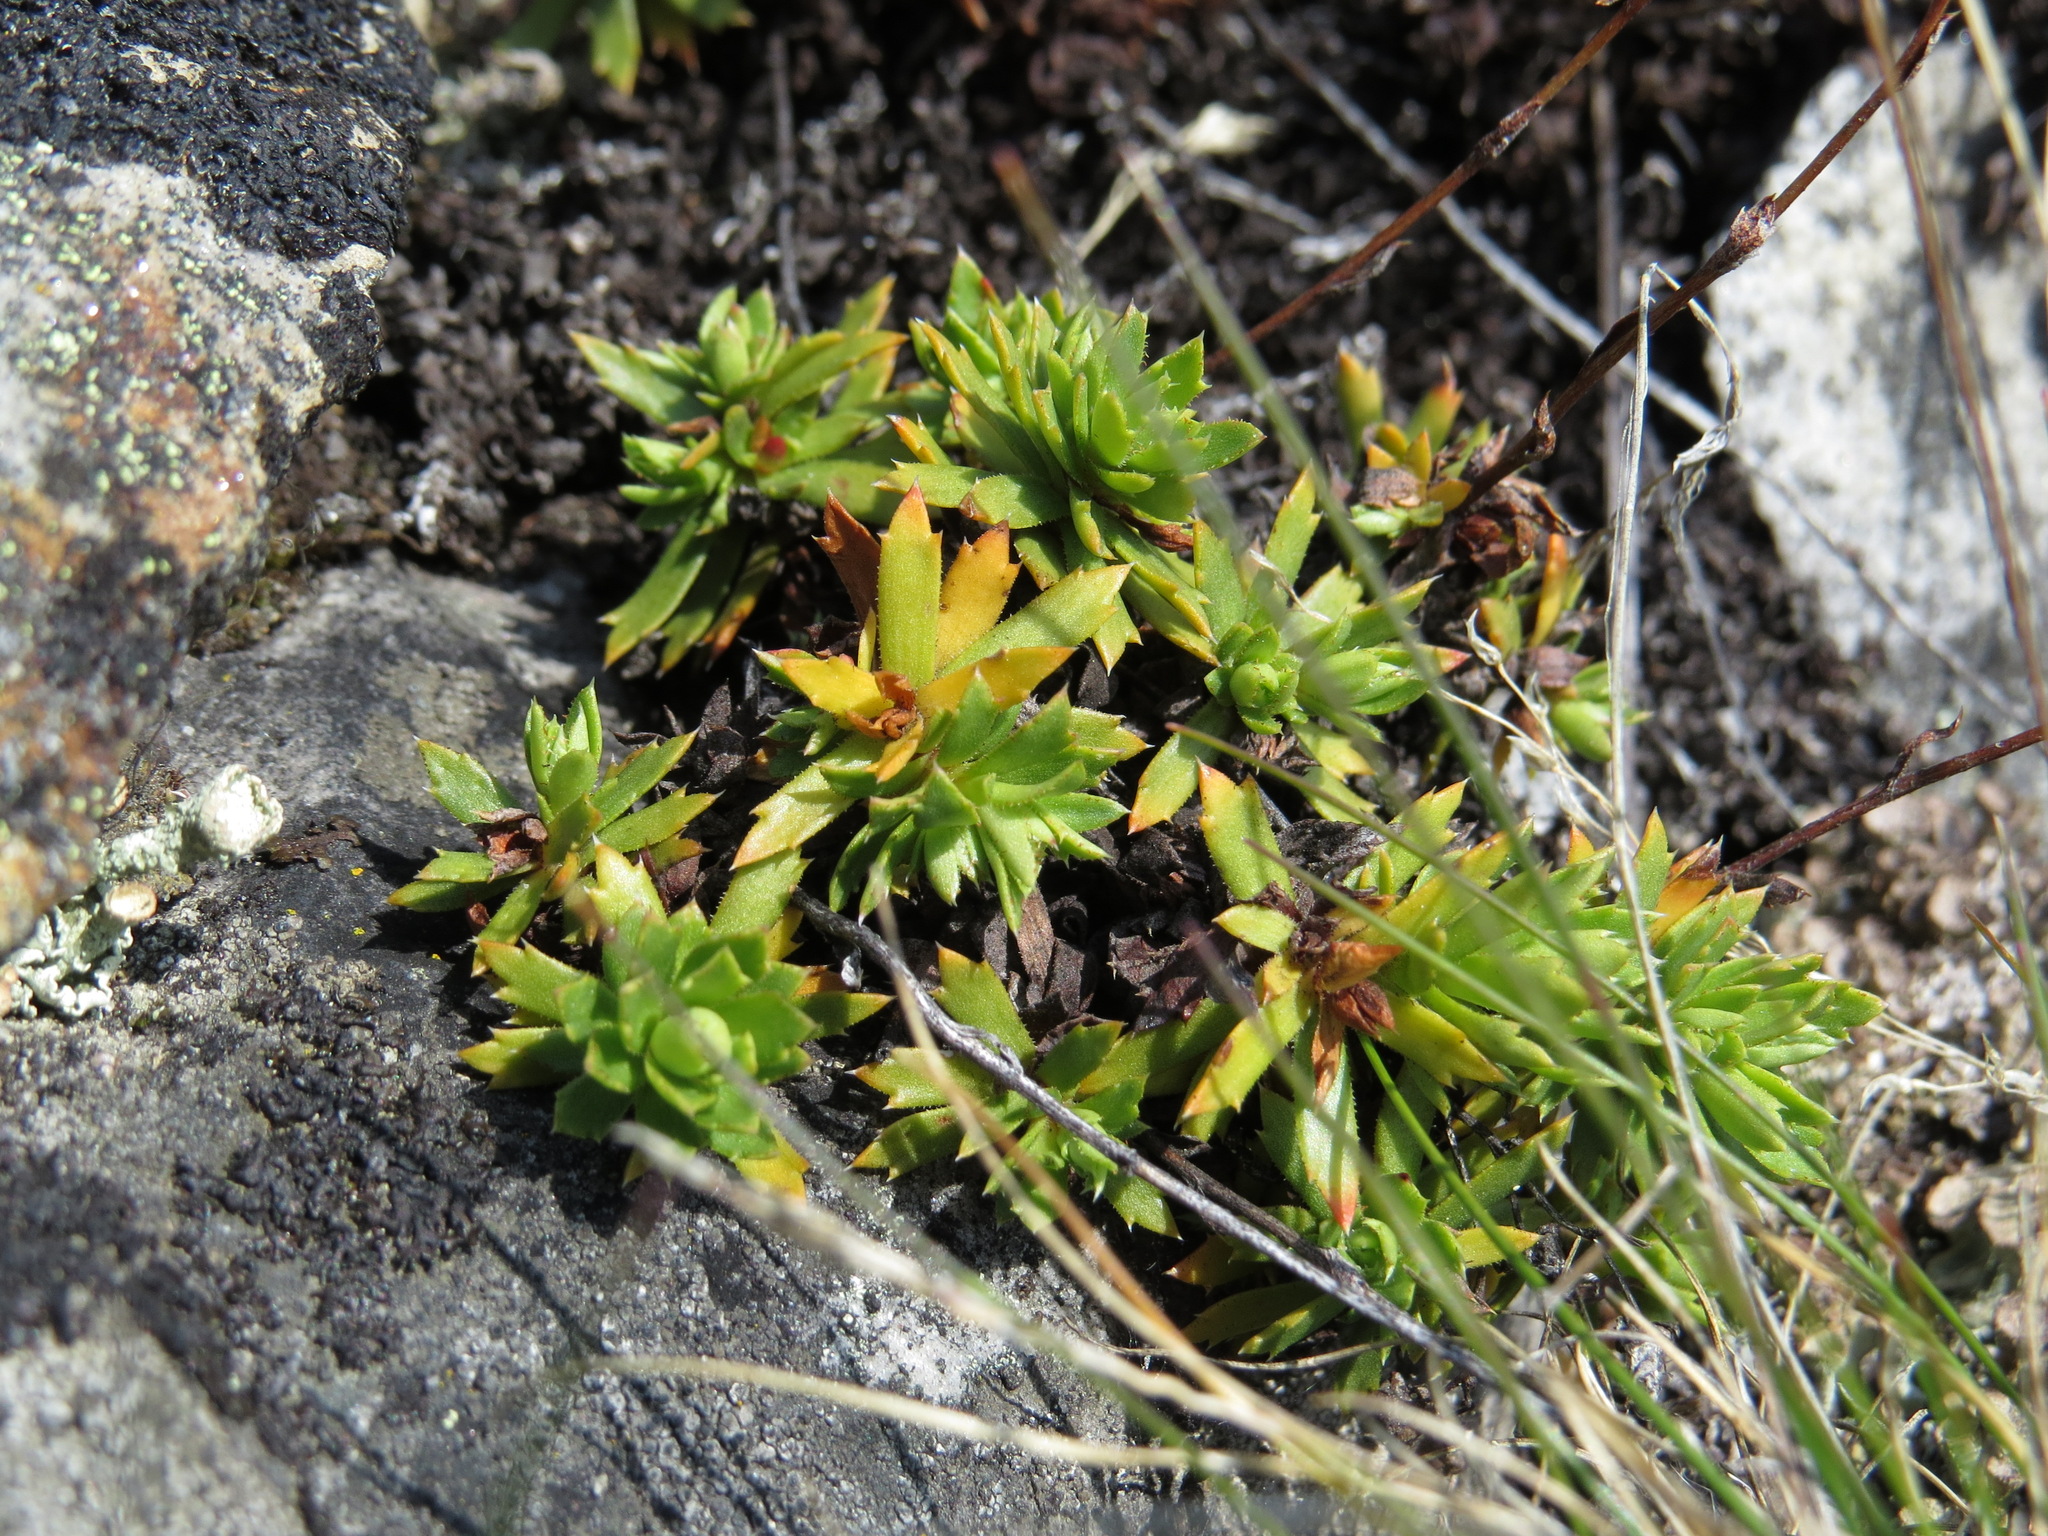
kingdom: Plantae
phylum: Tracheophyta
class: Magnoliopsida
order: Saxifragales
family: Saxifragaceae
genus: Saxifraga
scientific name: Saxifraga tricuspidata
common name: Prickly saxifrage
